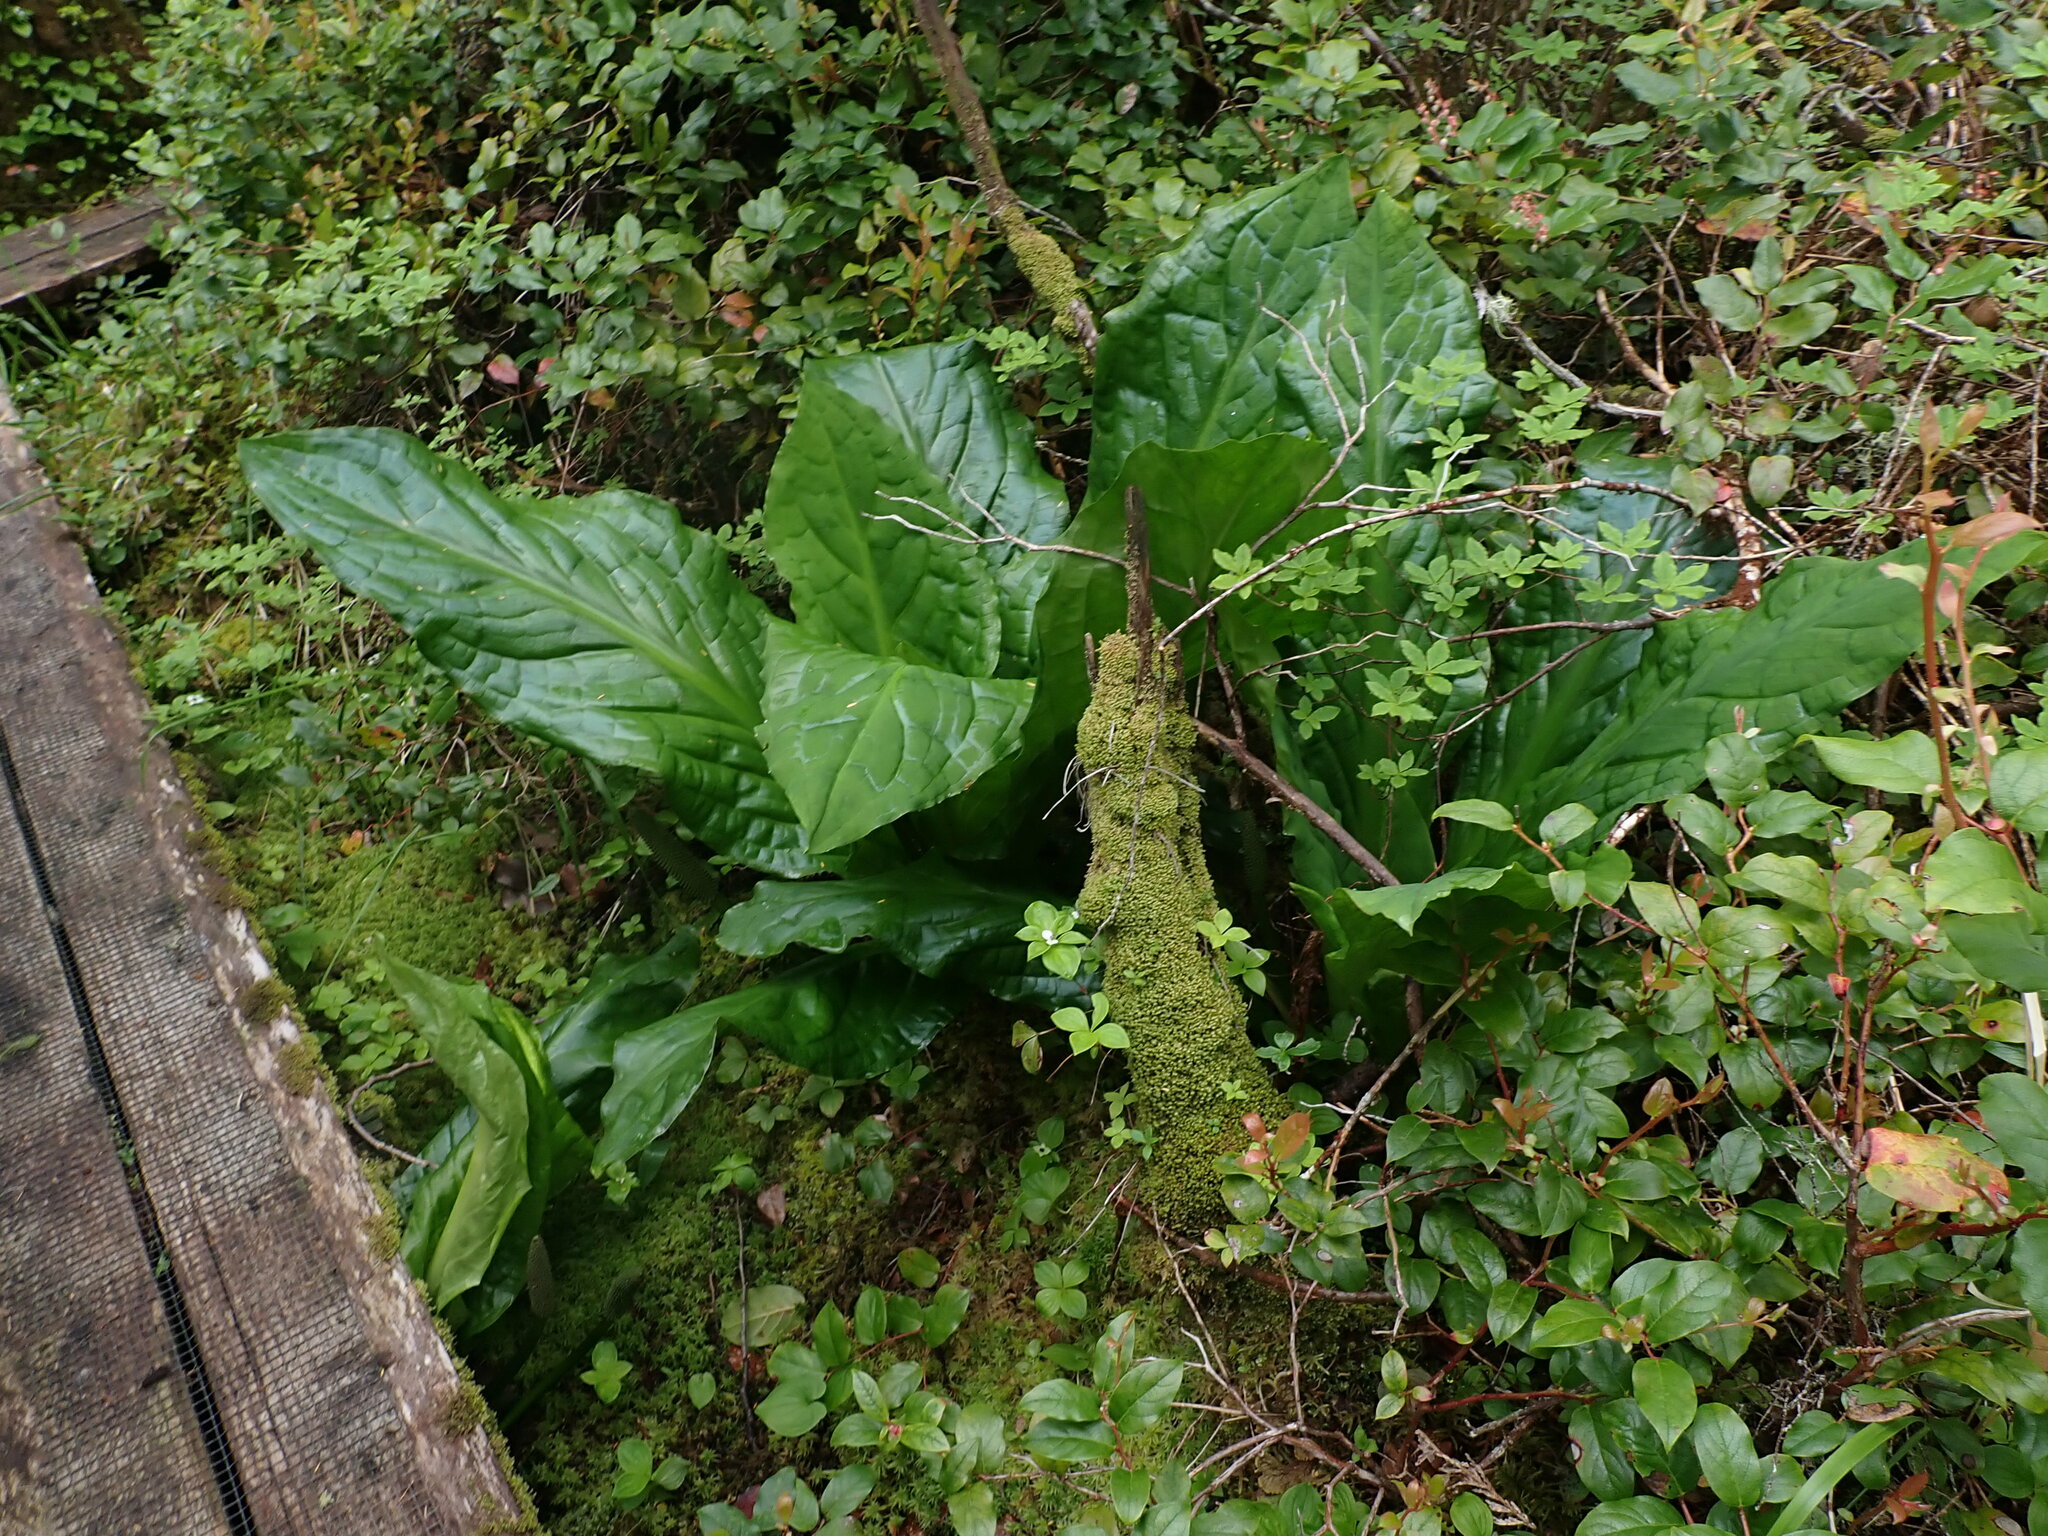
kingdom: Plantae
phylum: Tracheophyta
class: Liliopsida
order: Alismatales
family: Araceae
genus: Lysichiton
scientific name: Lysichiton americanus
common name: American skunk cabbage
